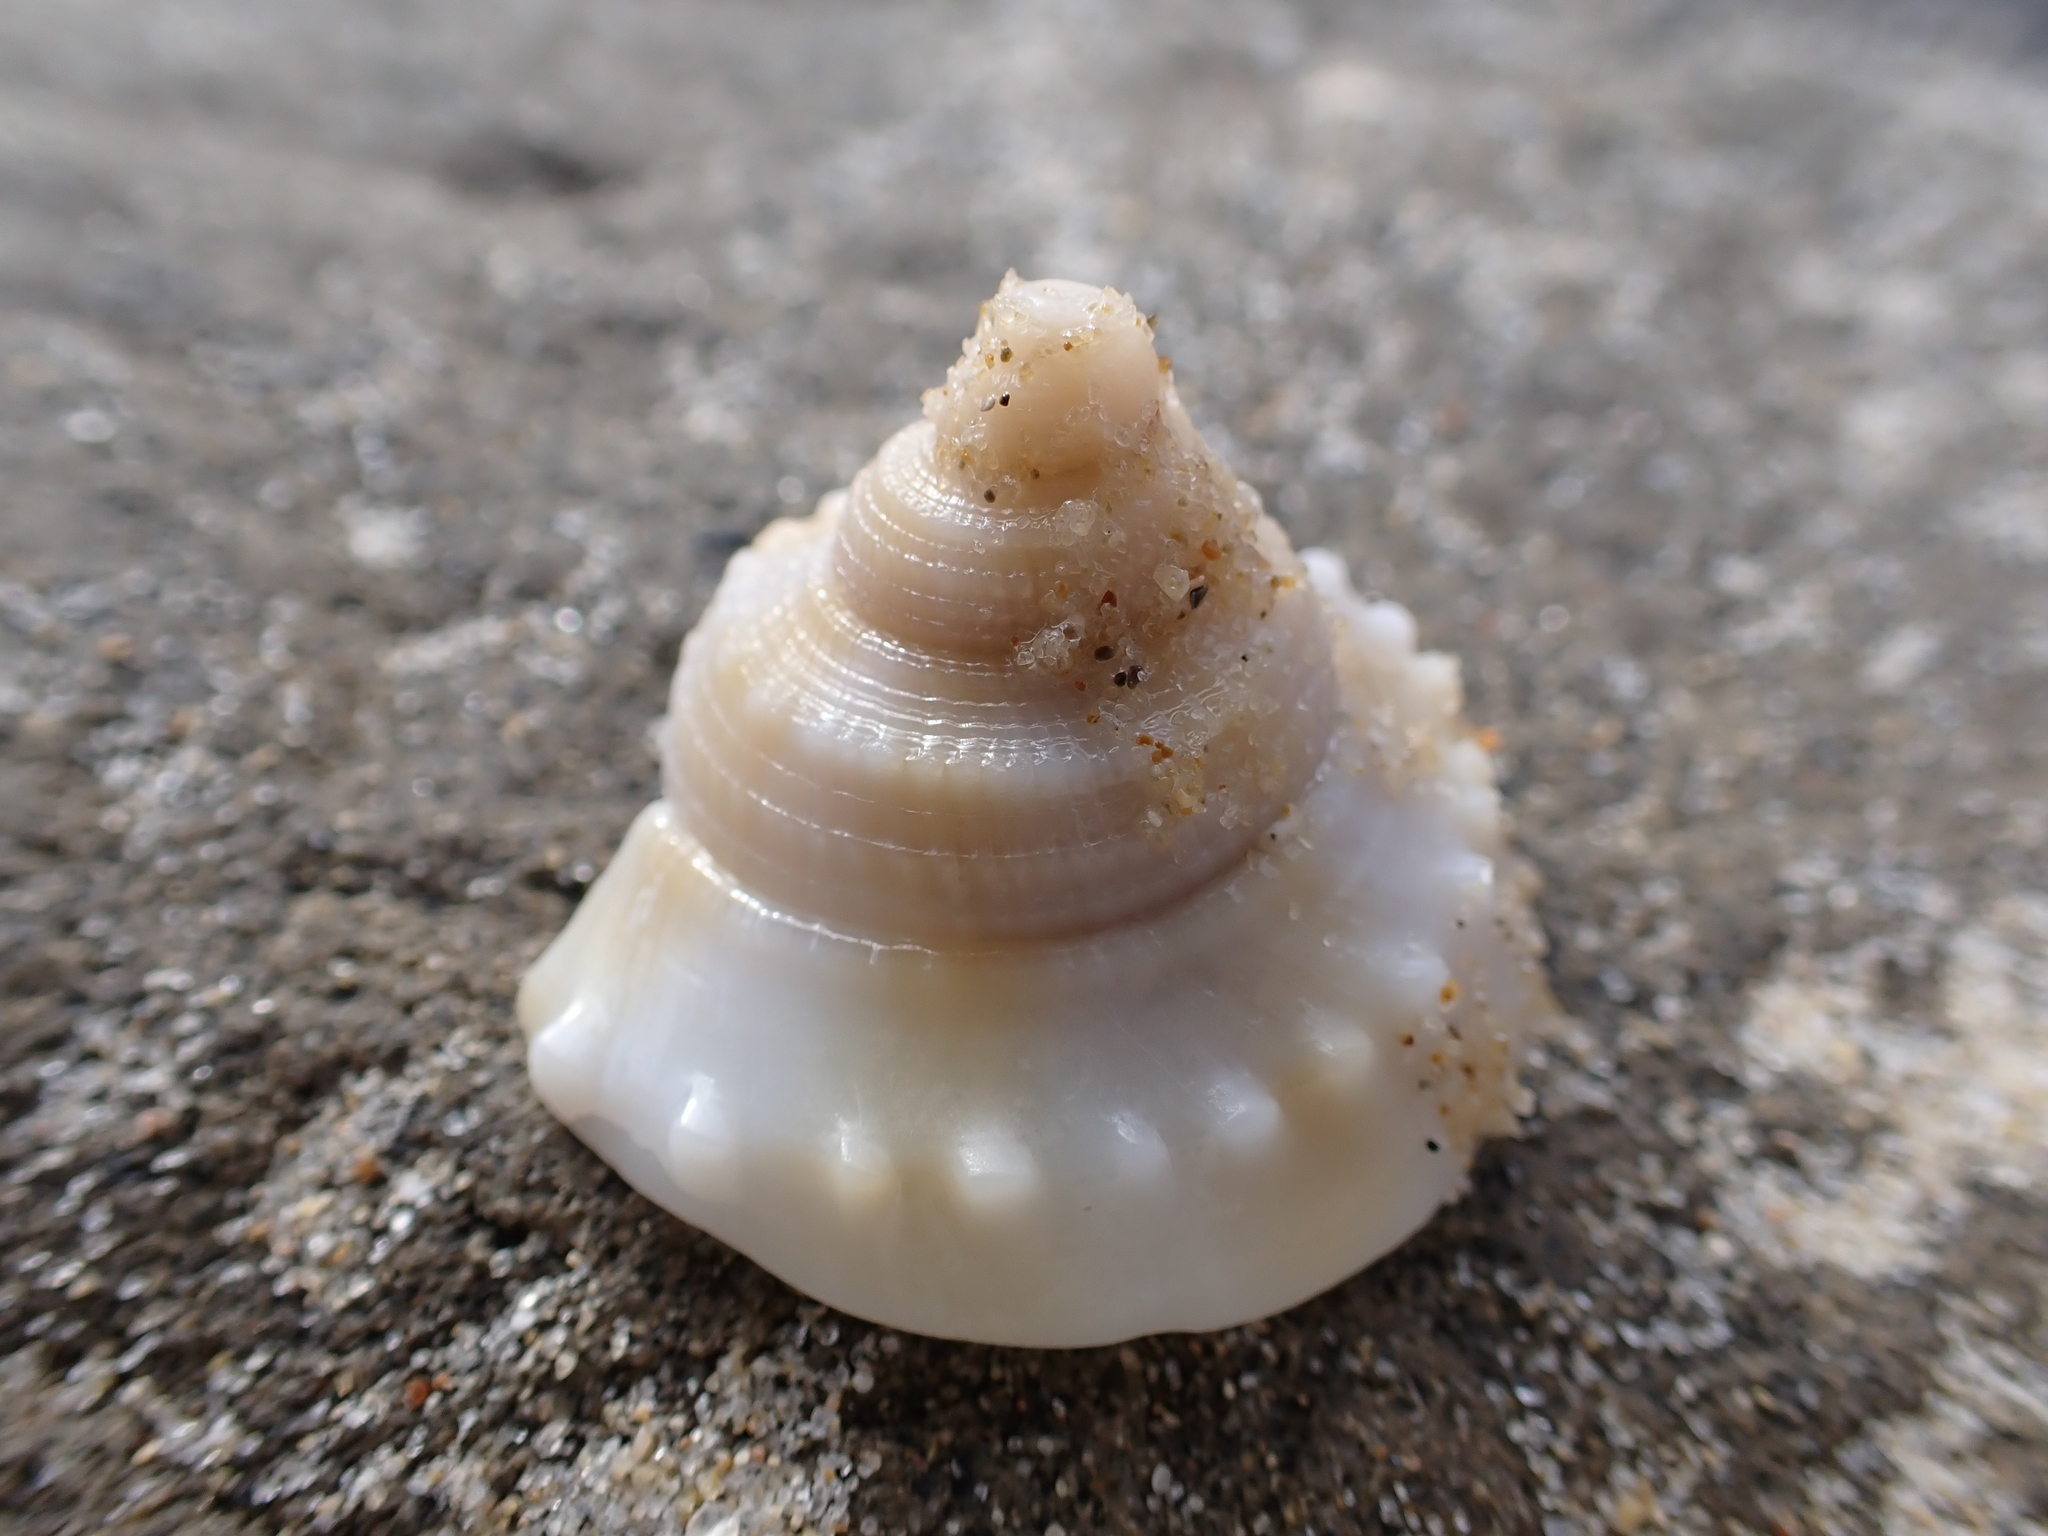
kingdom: Animalia
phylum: Mollusca
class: Gastropoda
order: Littorinimorpha
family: Cassidae
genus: Phalium
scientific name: Phalium bandatum
